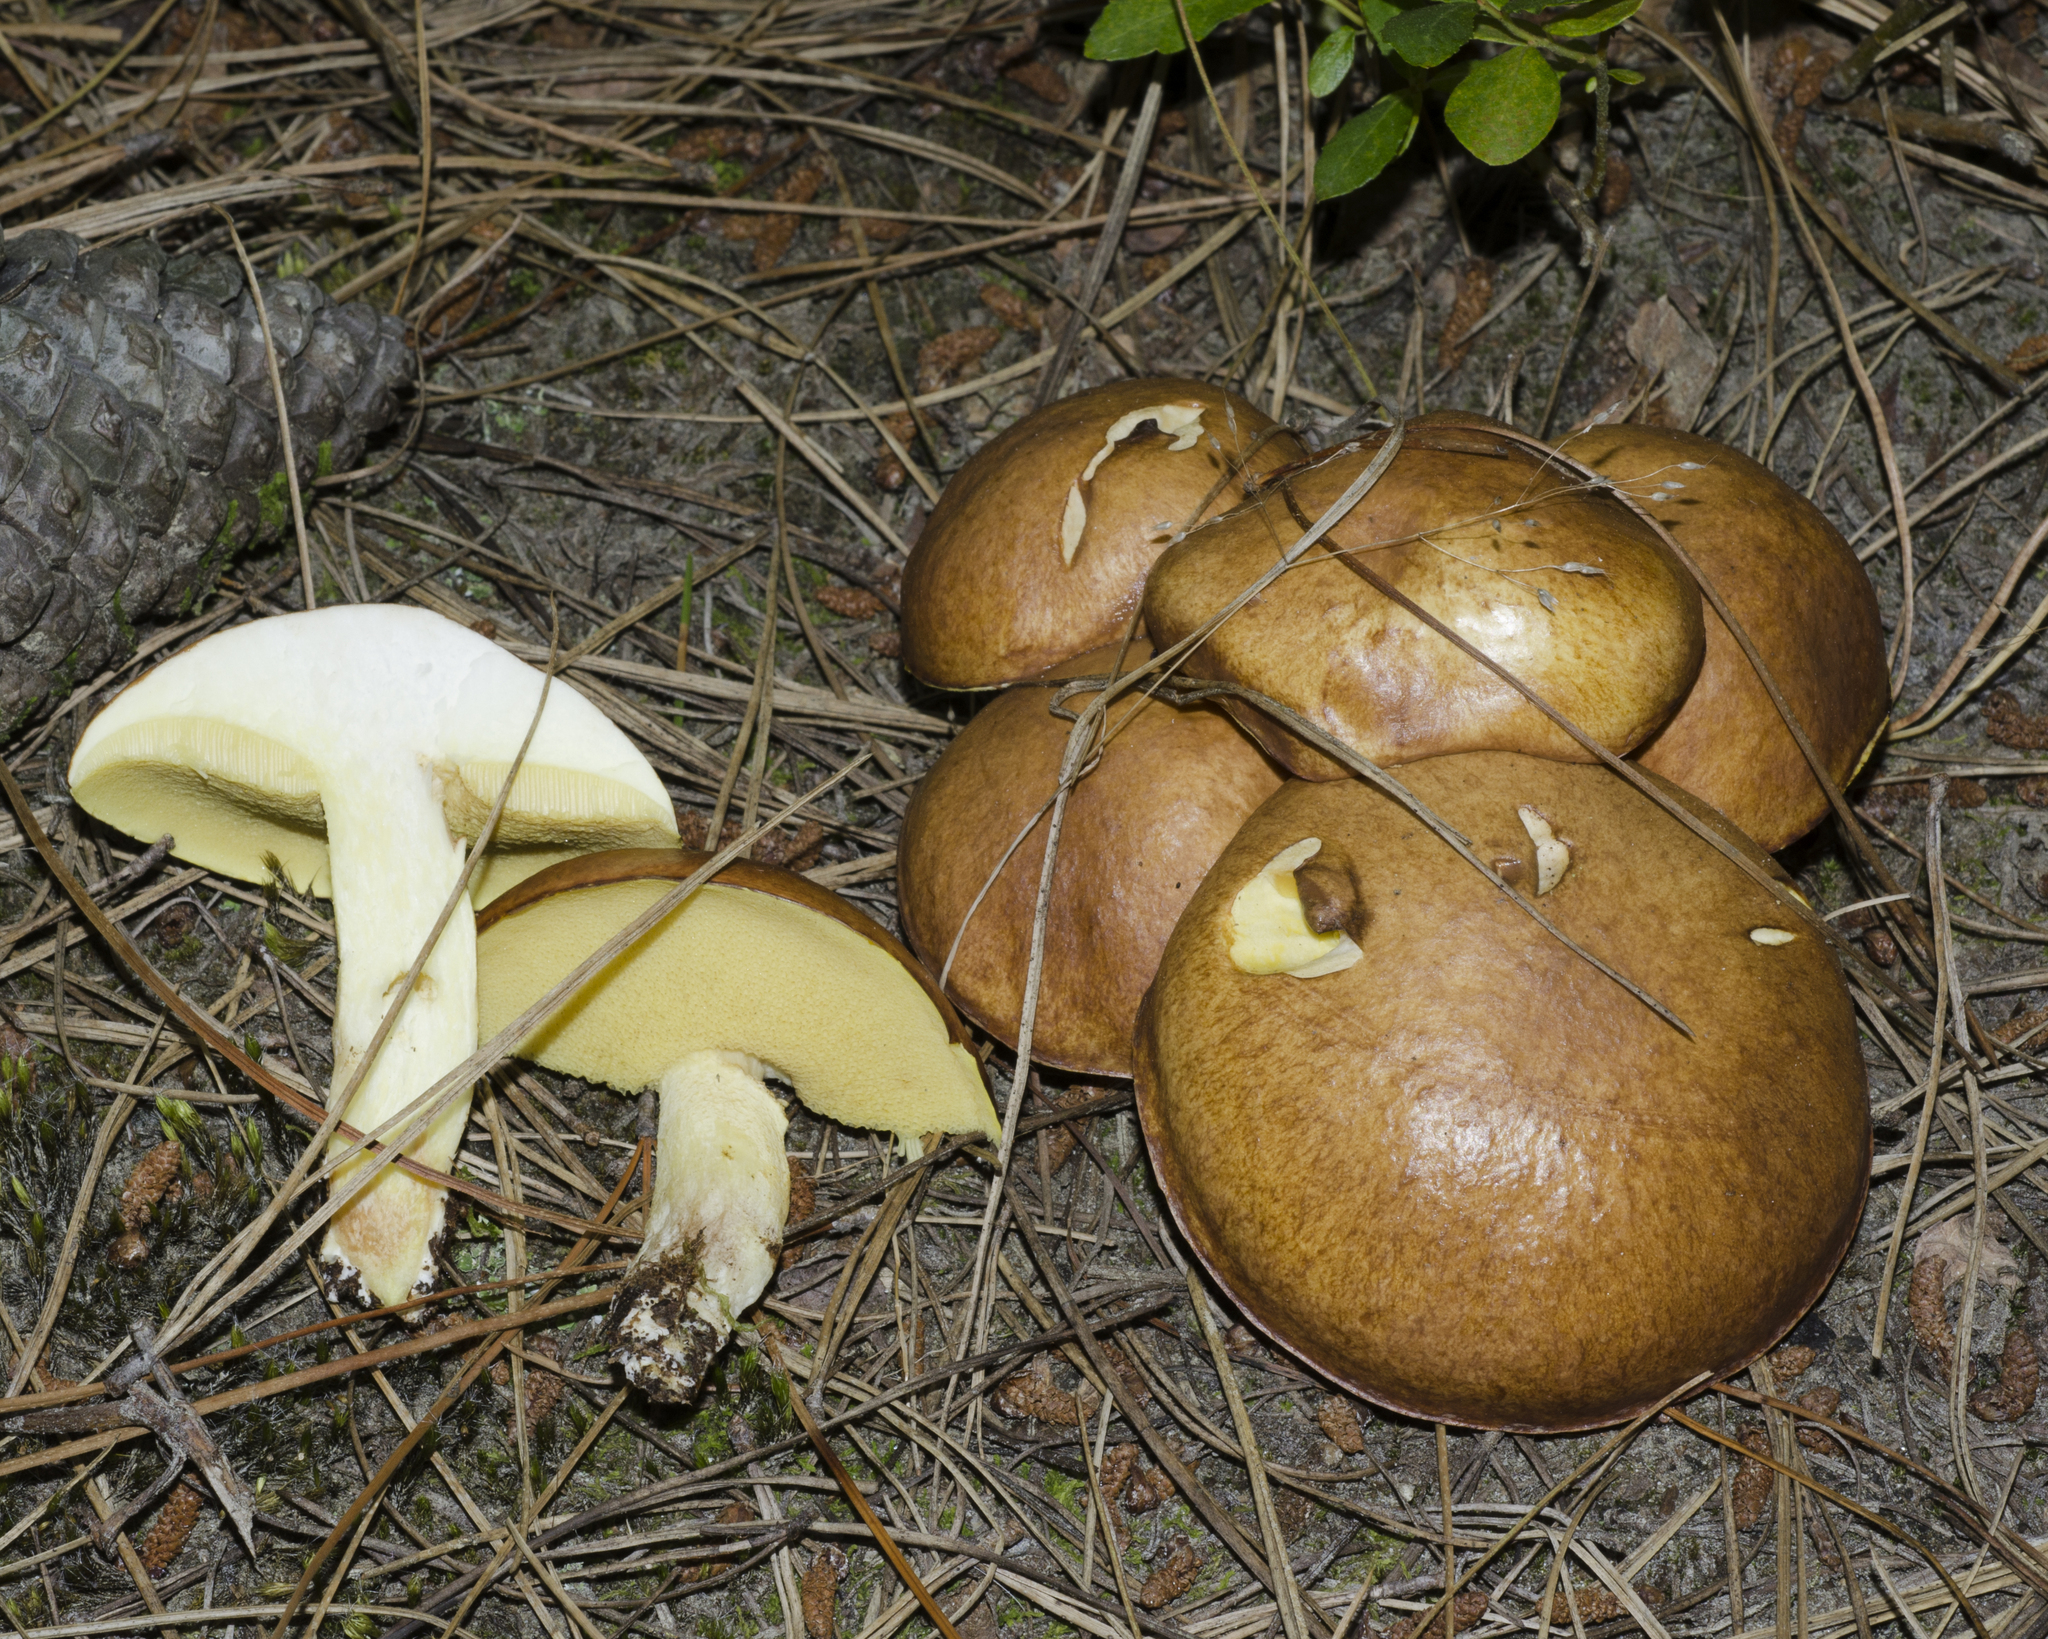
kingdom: Fungi
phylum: Basidiomycota
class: Agaricomycetes
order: Boletales
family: Suillaceae
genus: Suillus
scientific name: Suillus granulatus
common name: Weeping bolete
